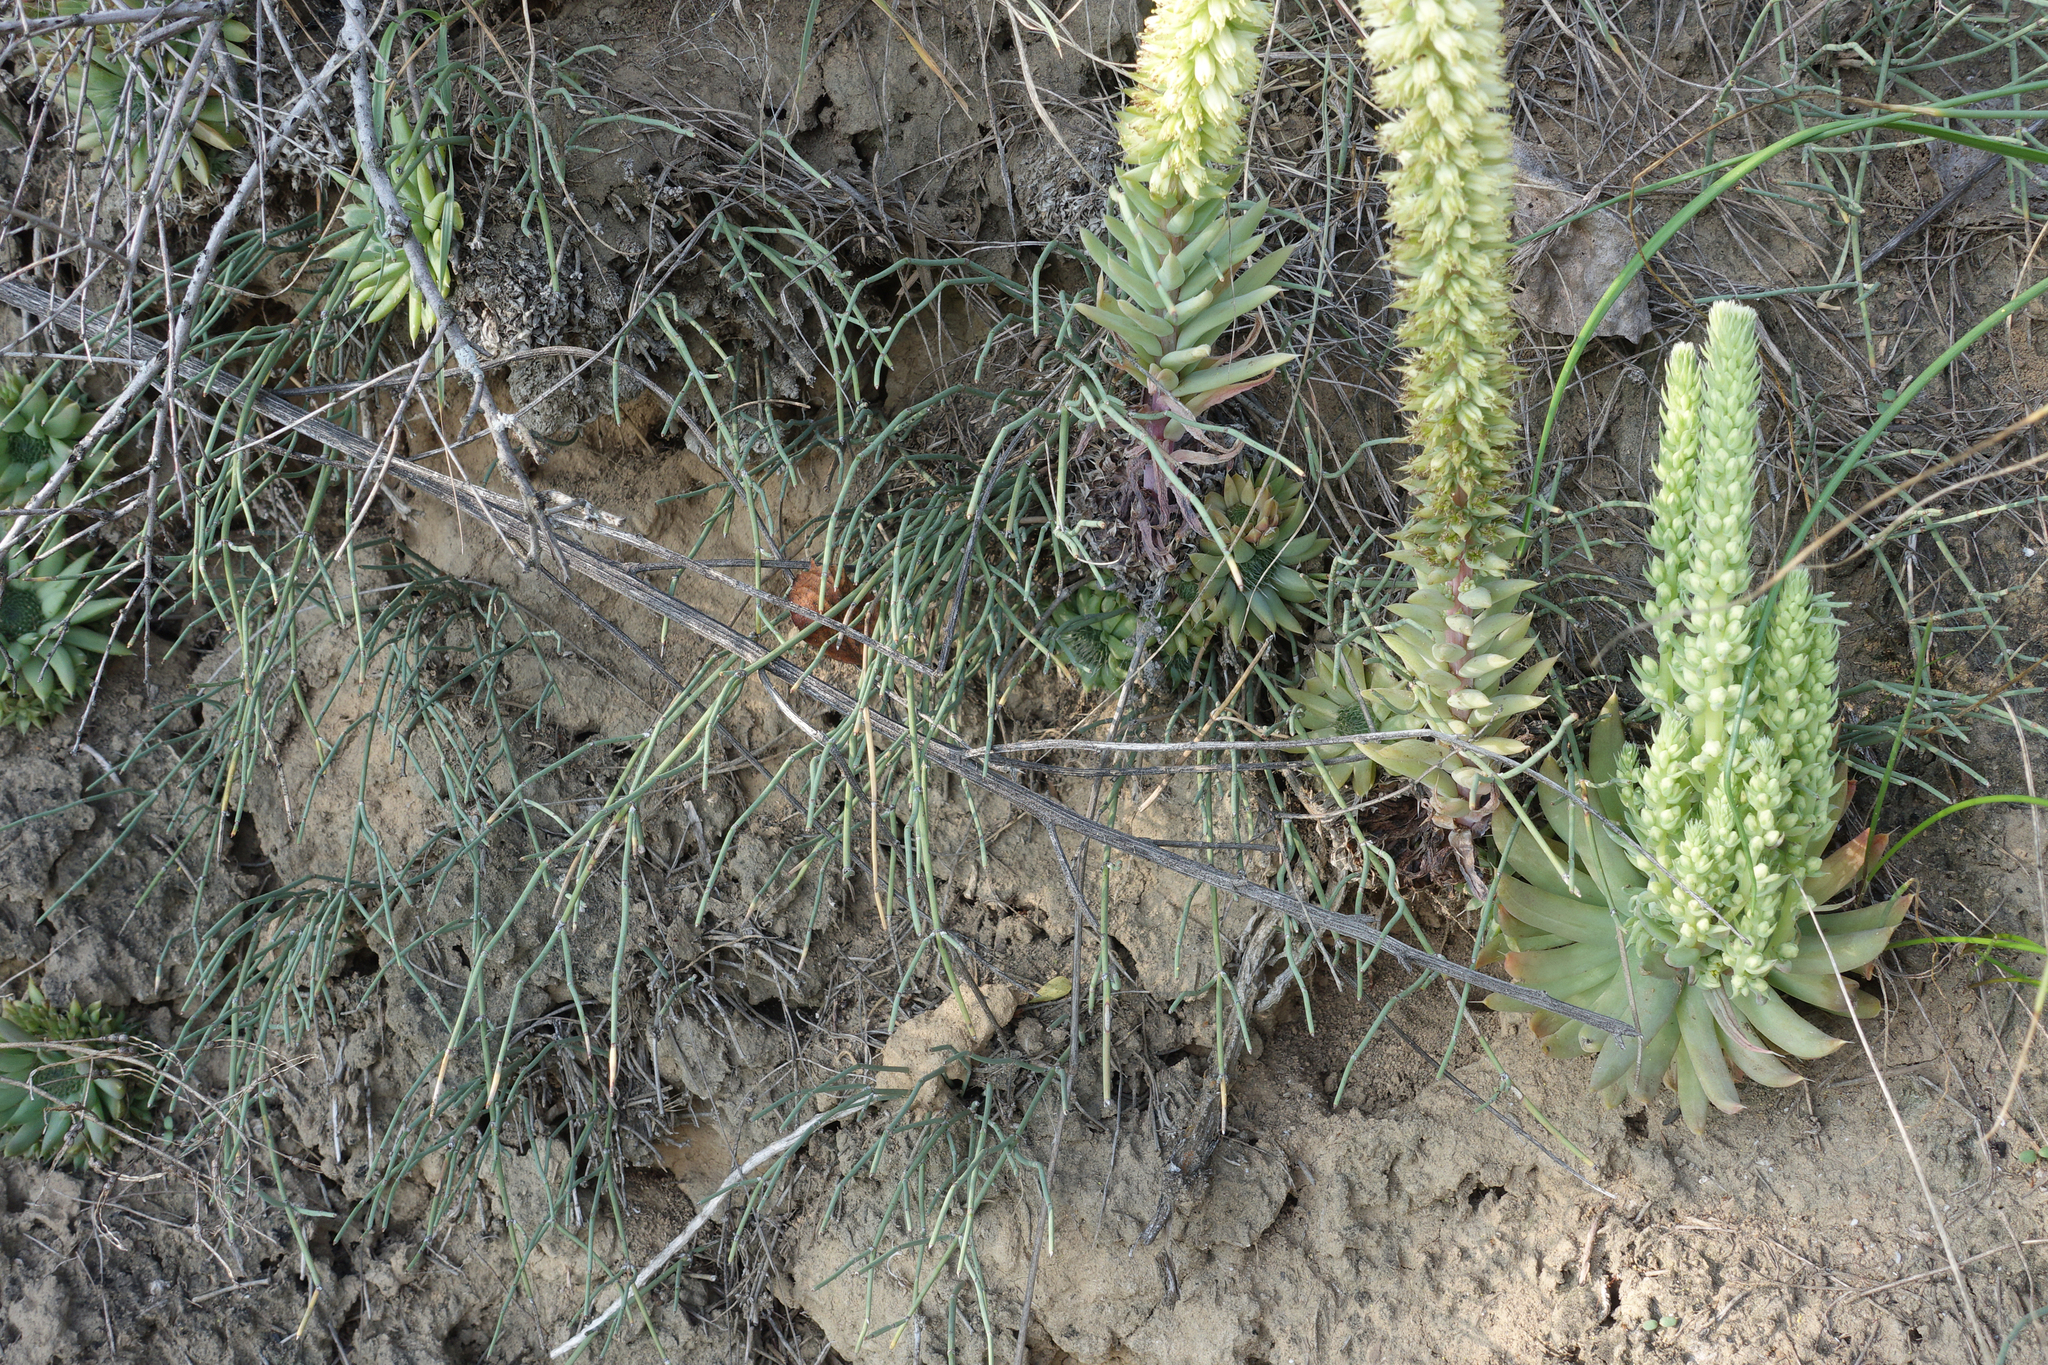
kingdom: Plantae
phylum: Tracheophyta
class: Magnoliopsida
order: Saxifragales
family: Crassulaceae
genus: Orostachys
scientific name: Orostachys spinosa
